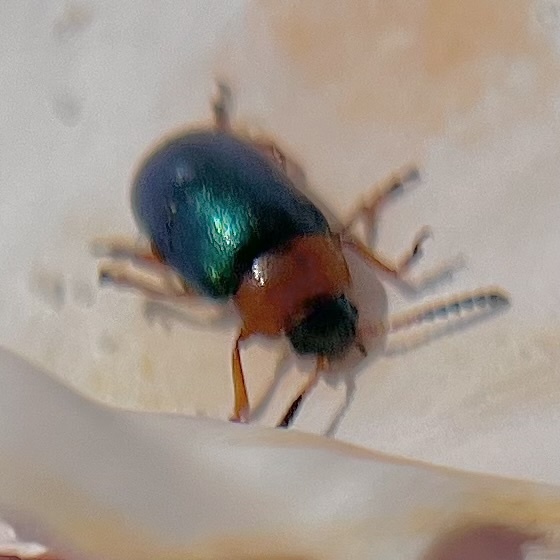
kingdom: Animalia
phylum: Arthropoda
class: Insecta
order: Coleoptera
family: Chrysomelidae
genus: Gastrophysa
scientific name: Gastrophysa polygoni
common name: Knotweed leaf beetle
